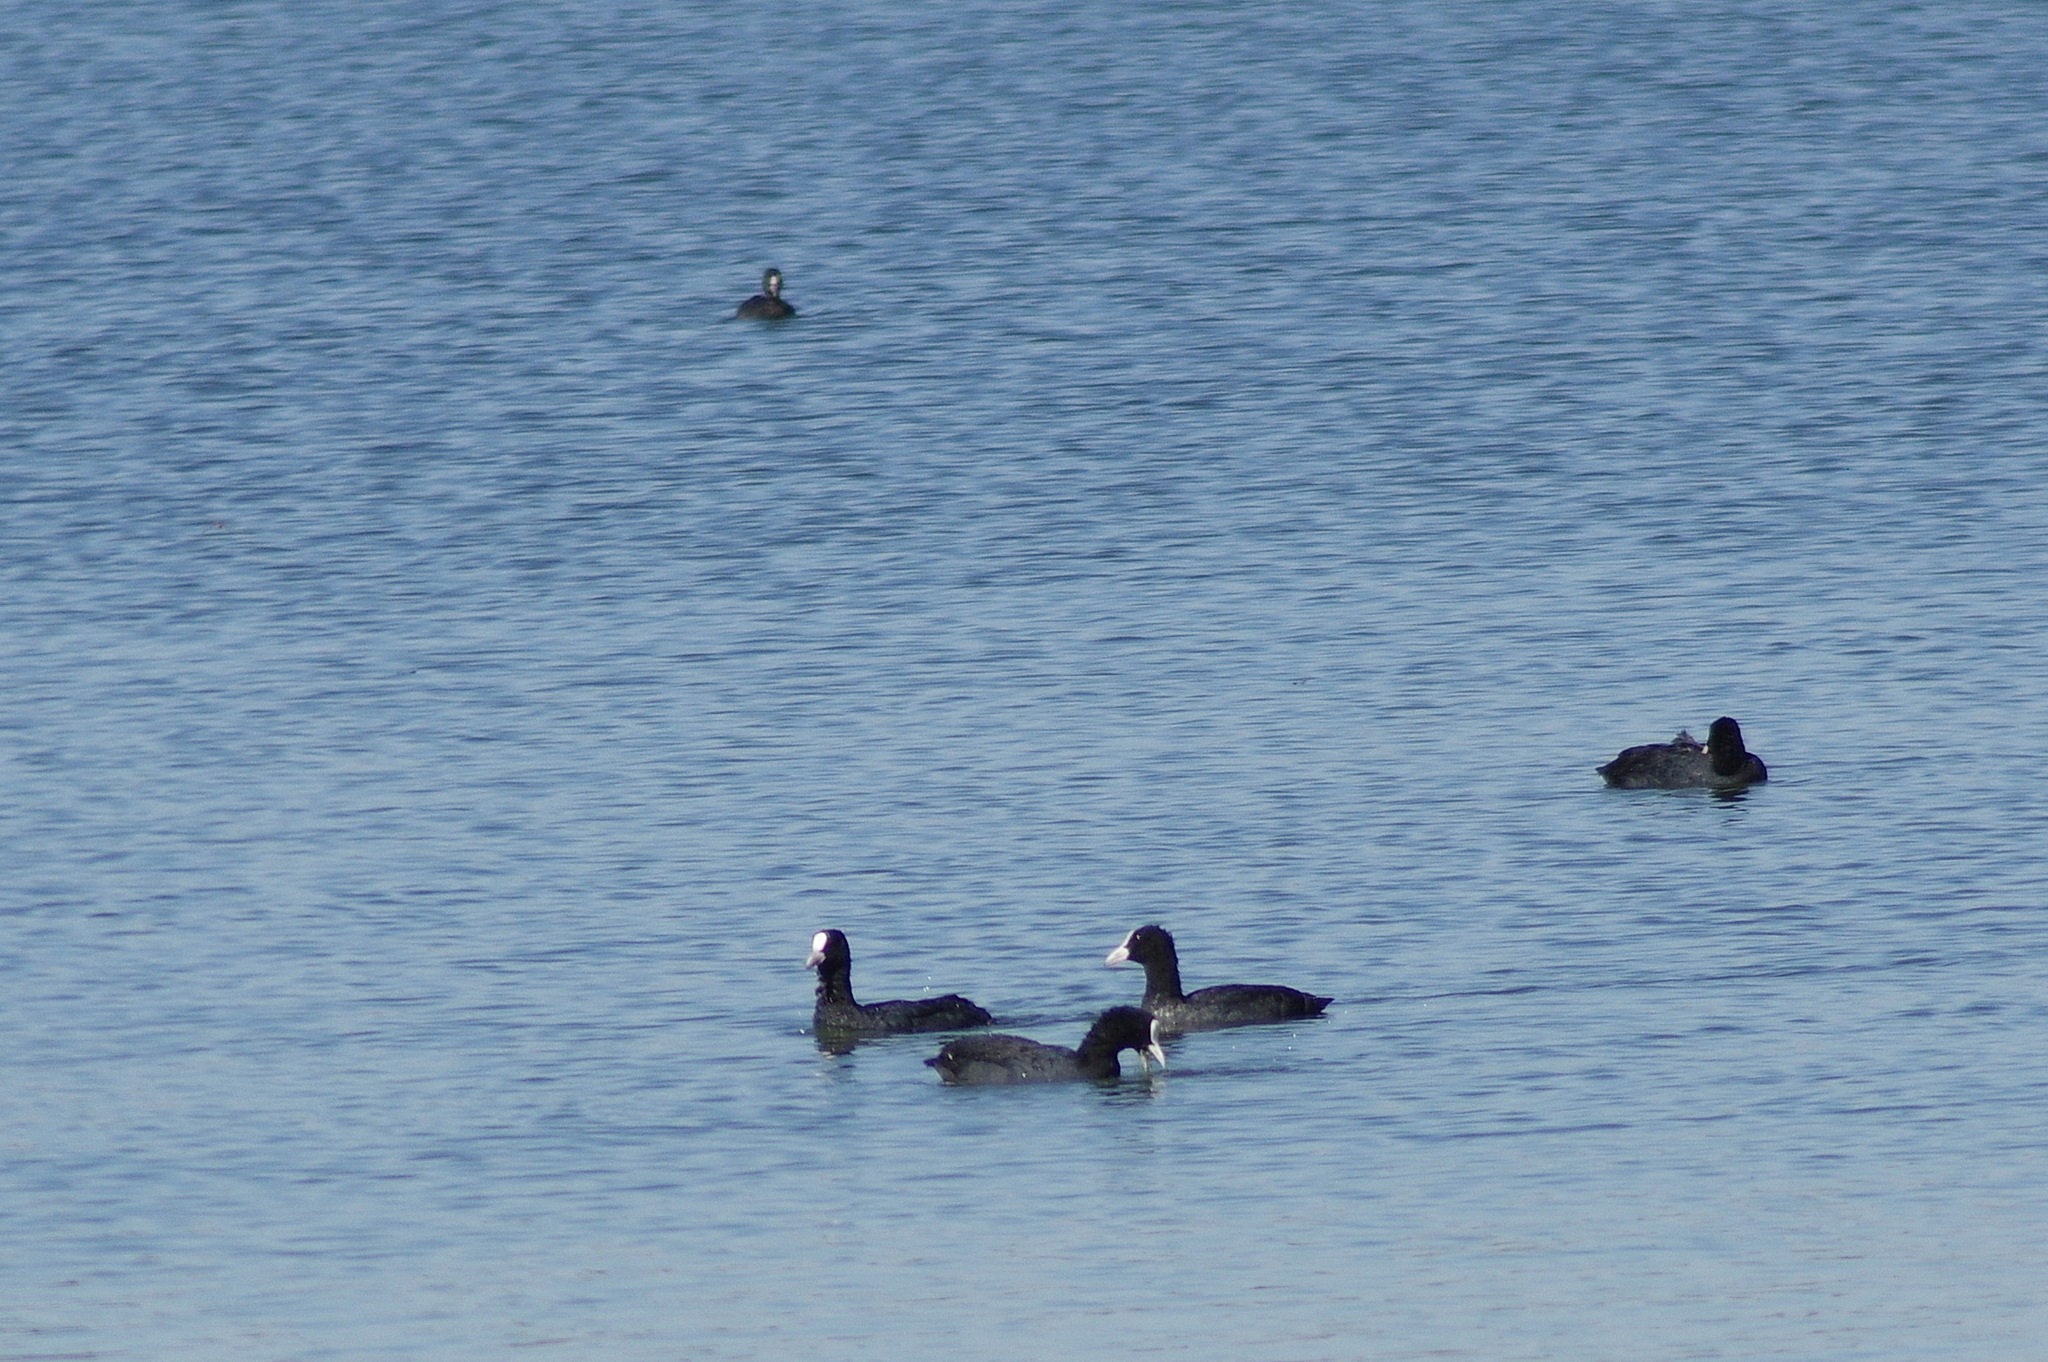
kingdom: Animalia
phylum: Chordata
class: Aves
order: Gruiformes
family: Rallidae
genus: Fulica
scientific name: Fulica atra
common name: Eurasian coot
